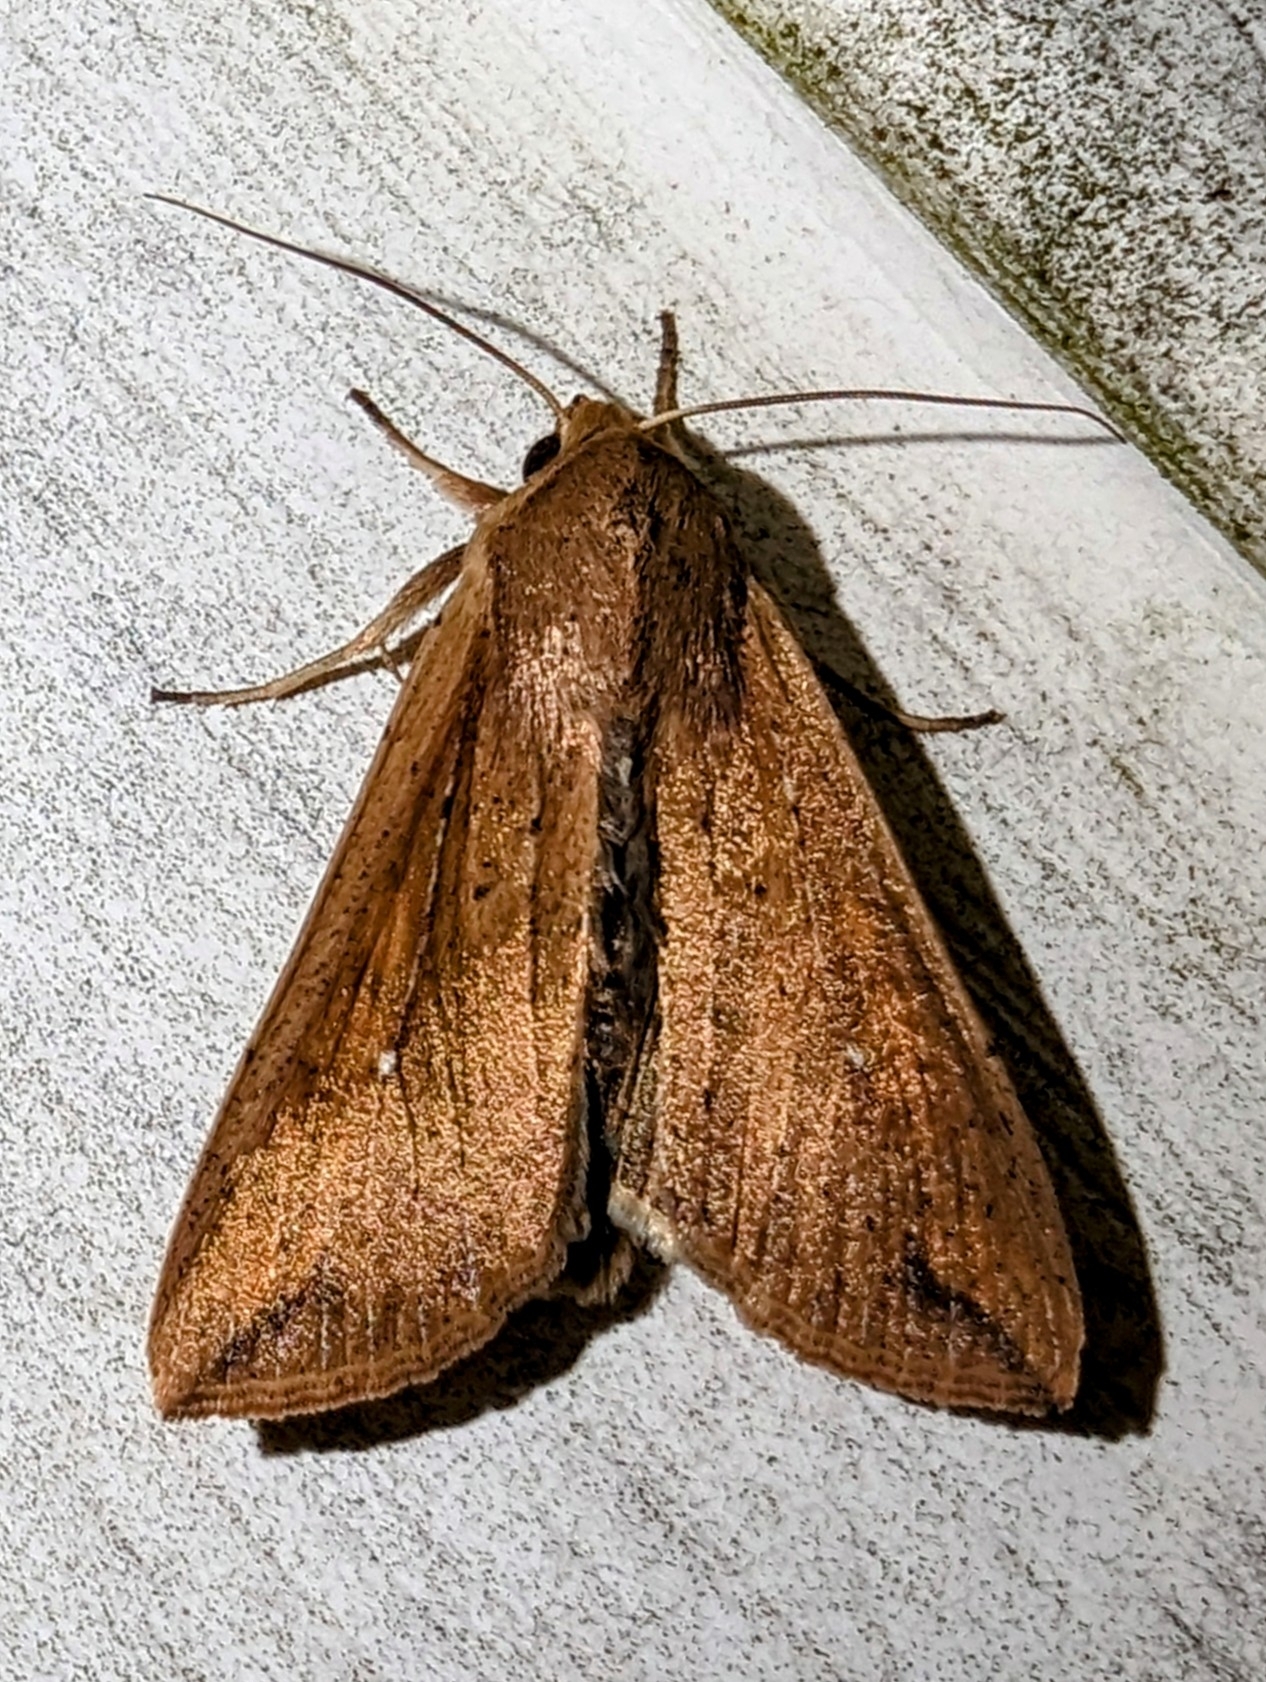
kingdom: Animalia
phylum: Arthropoda
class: Insecta
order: Lepidoptera
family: Noctuidae
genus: Mythimna
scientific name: Mythimna unipuncta
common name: White-speck
